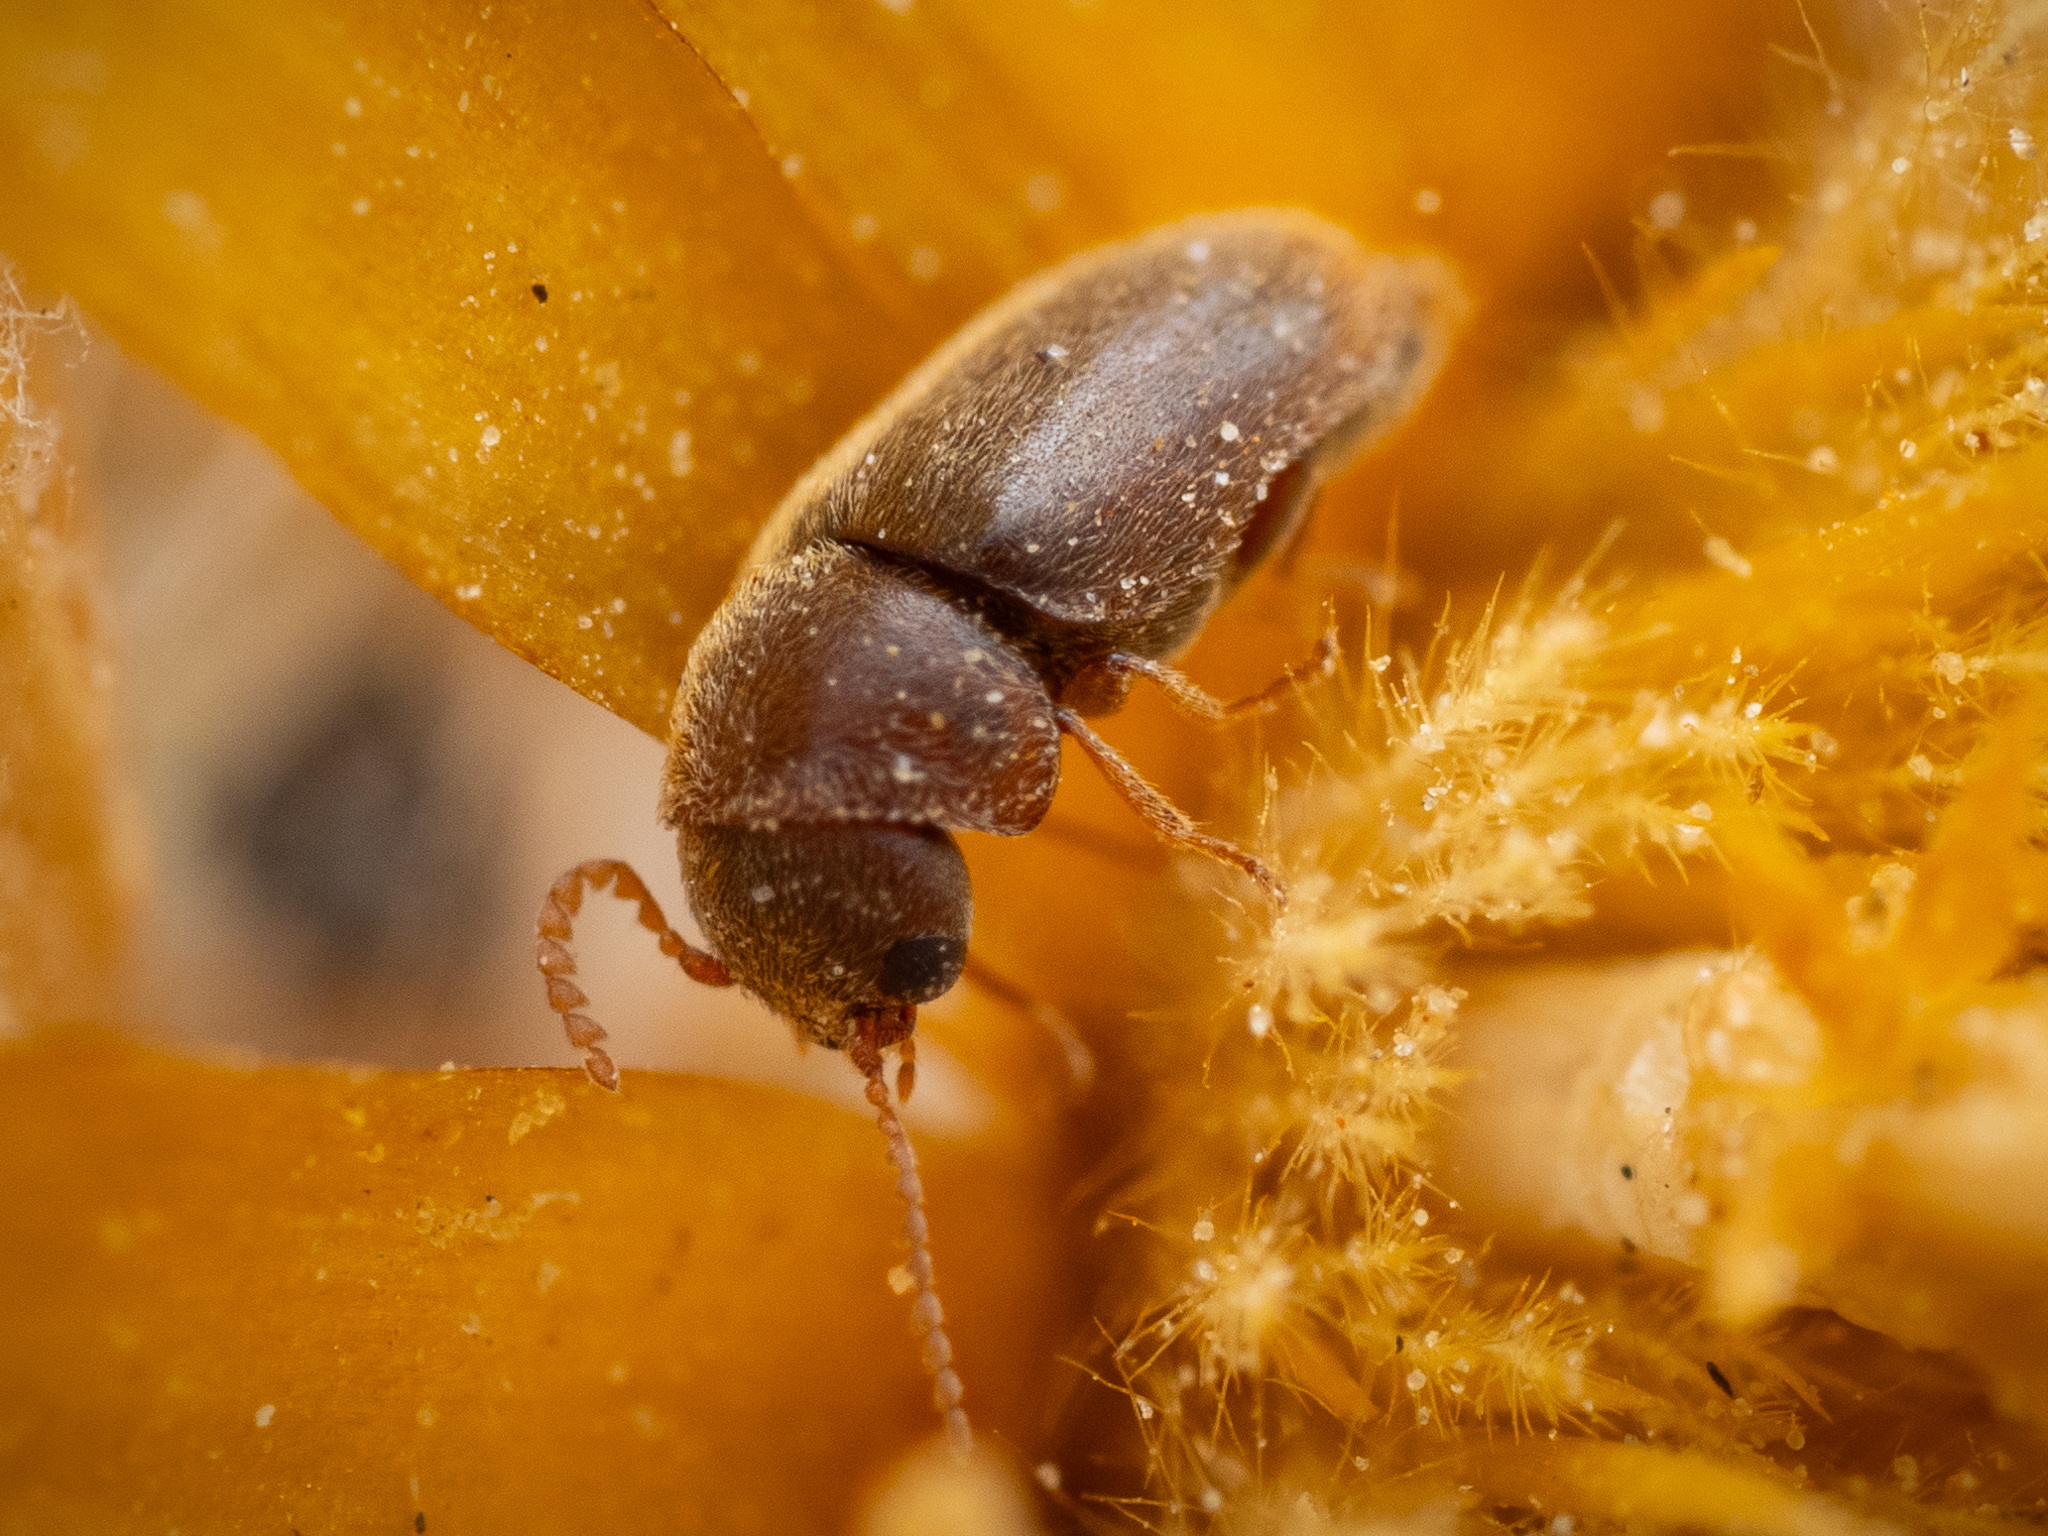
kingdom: Animalia
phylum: Arthropoda
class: Insecta
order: Coleoptera
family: Anobiidae
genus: Lasioderma
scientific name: Lasioderma serricorne
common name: Cigarette beetle
